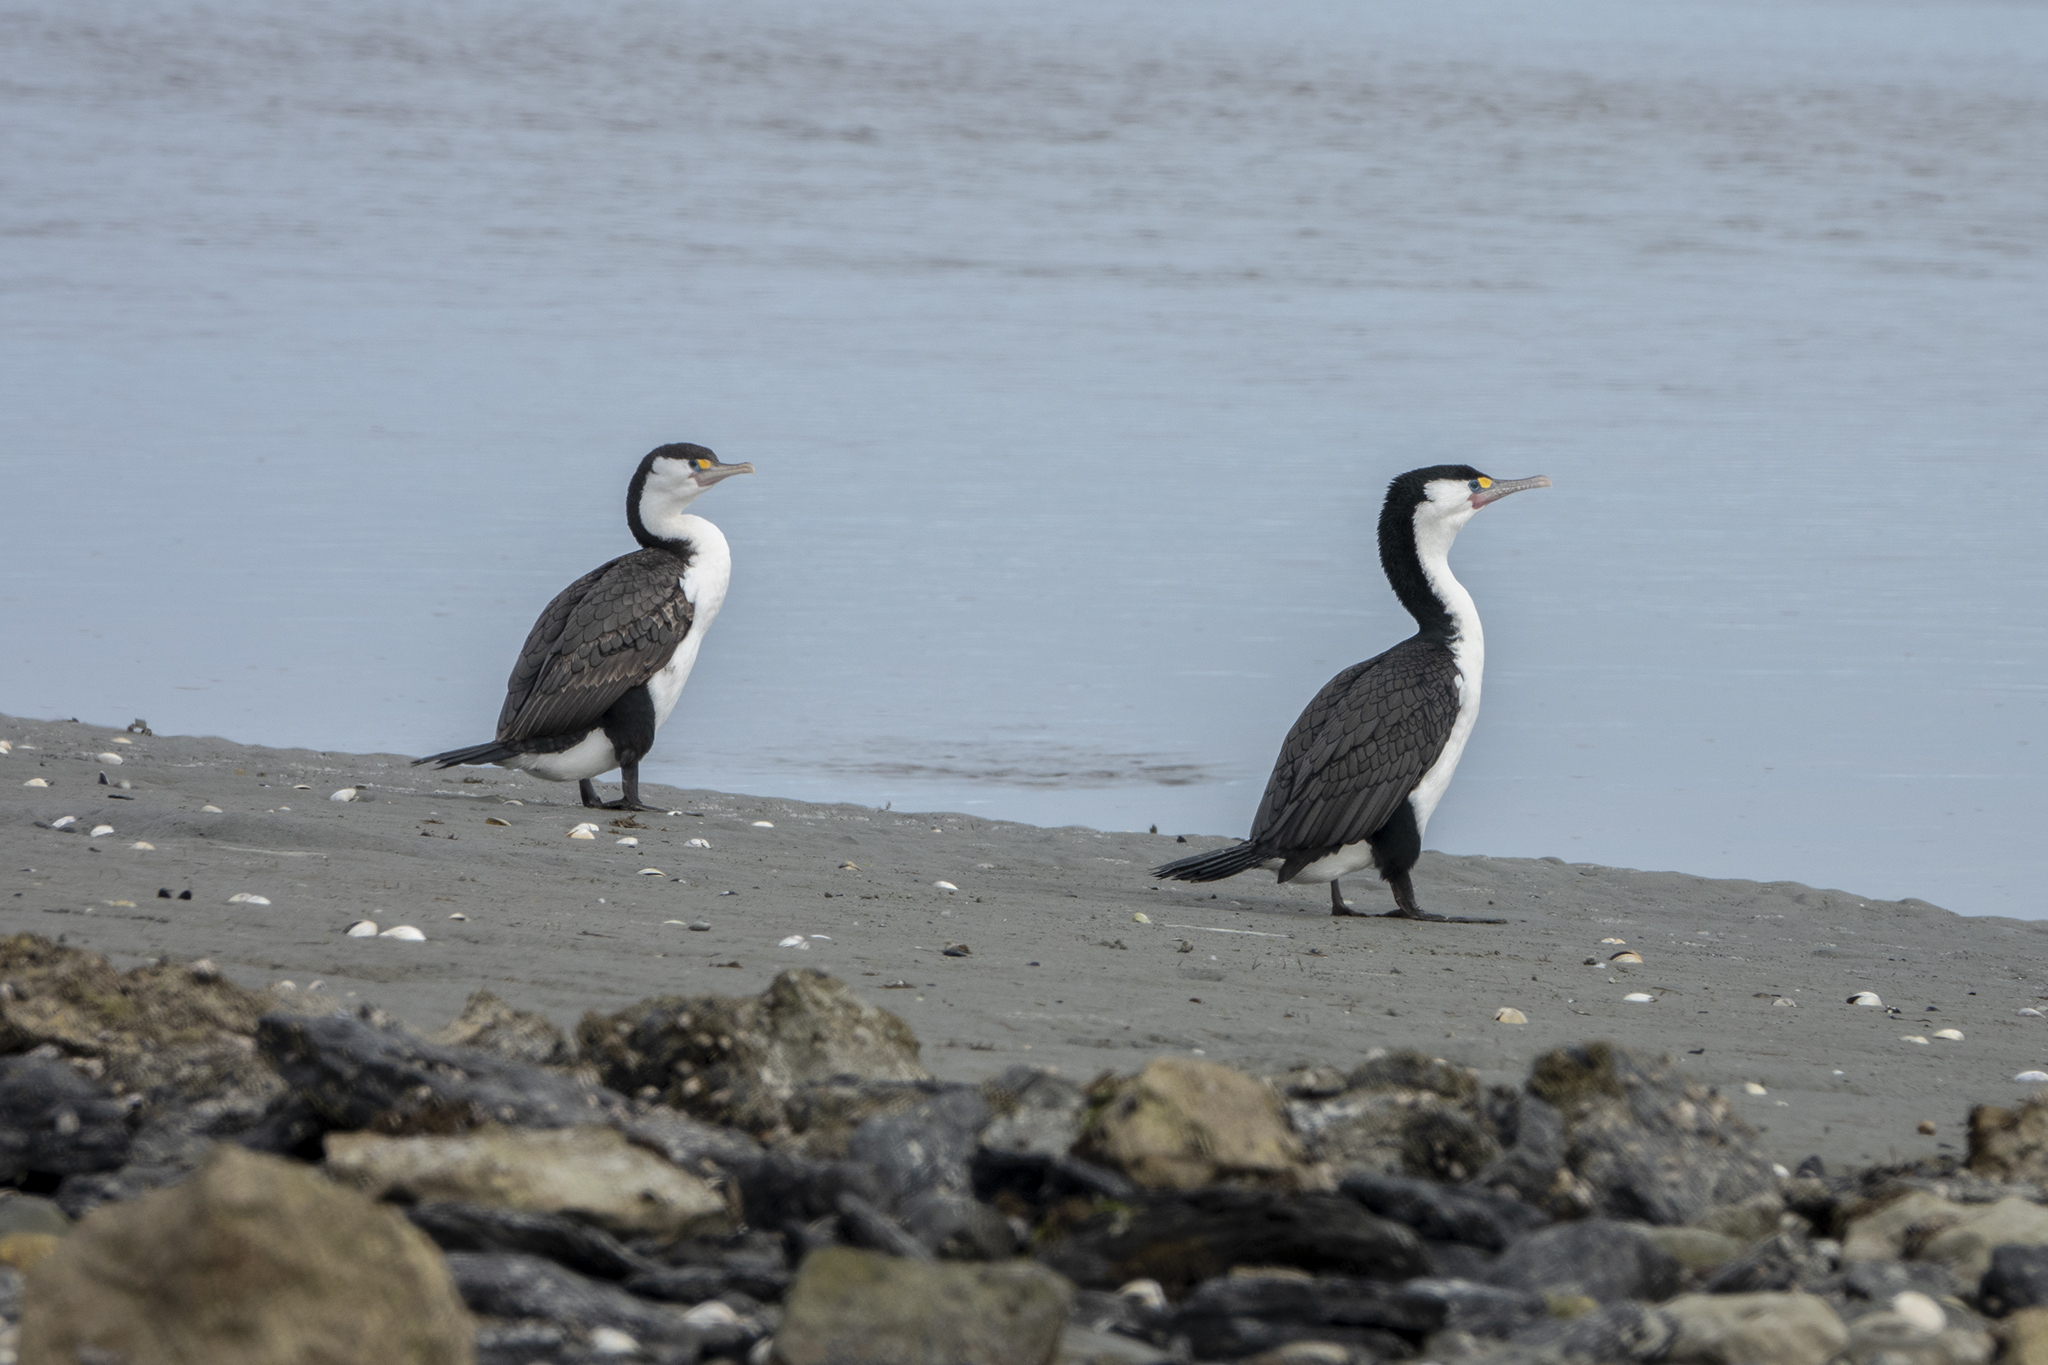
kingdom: Animalia
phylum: Chordata
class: Aves
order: Suliformes
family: Phalacrocoracidae
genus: Phalacrocorax
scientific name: Phalacrocorax varius
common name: Pied cormorant
